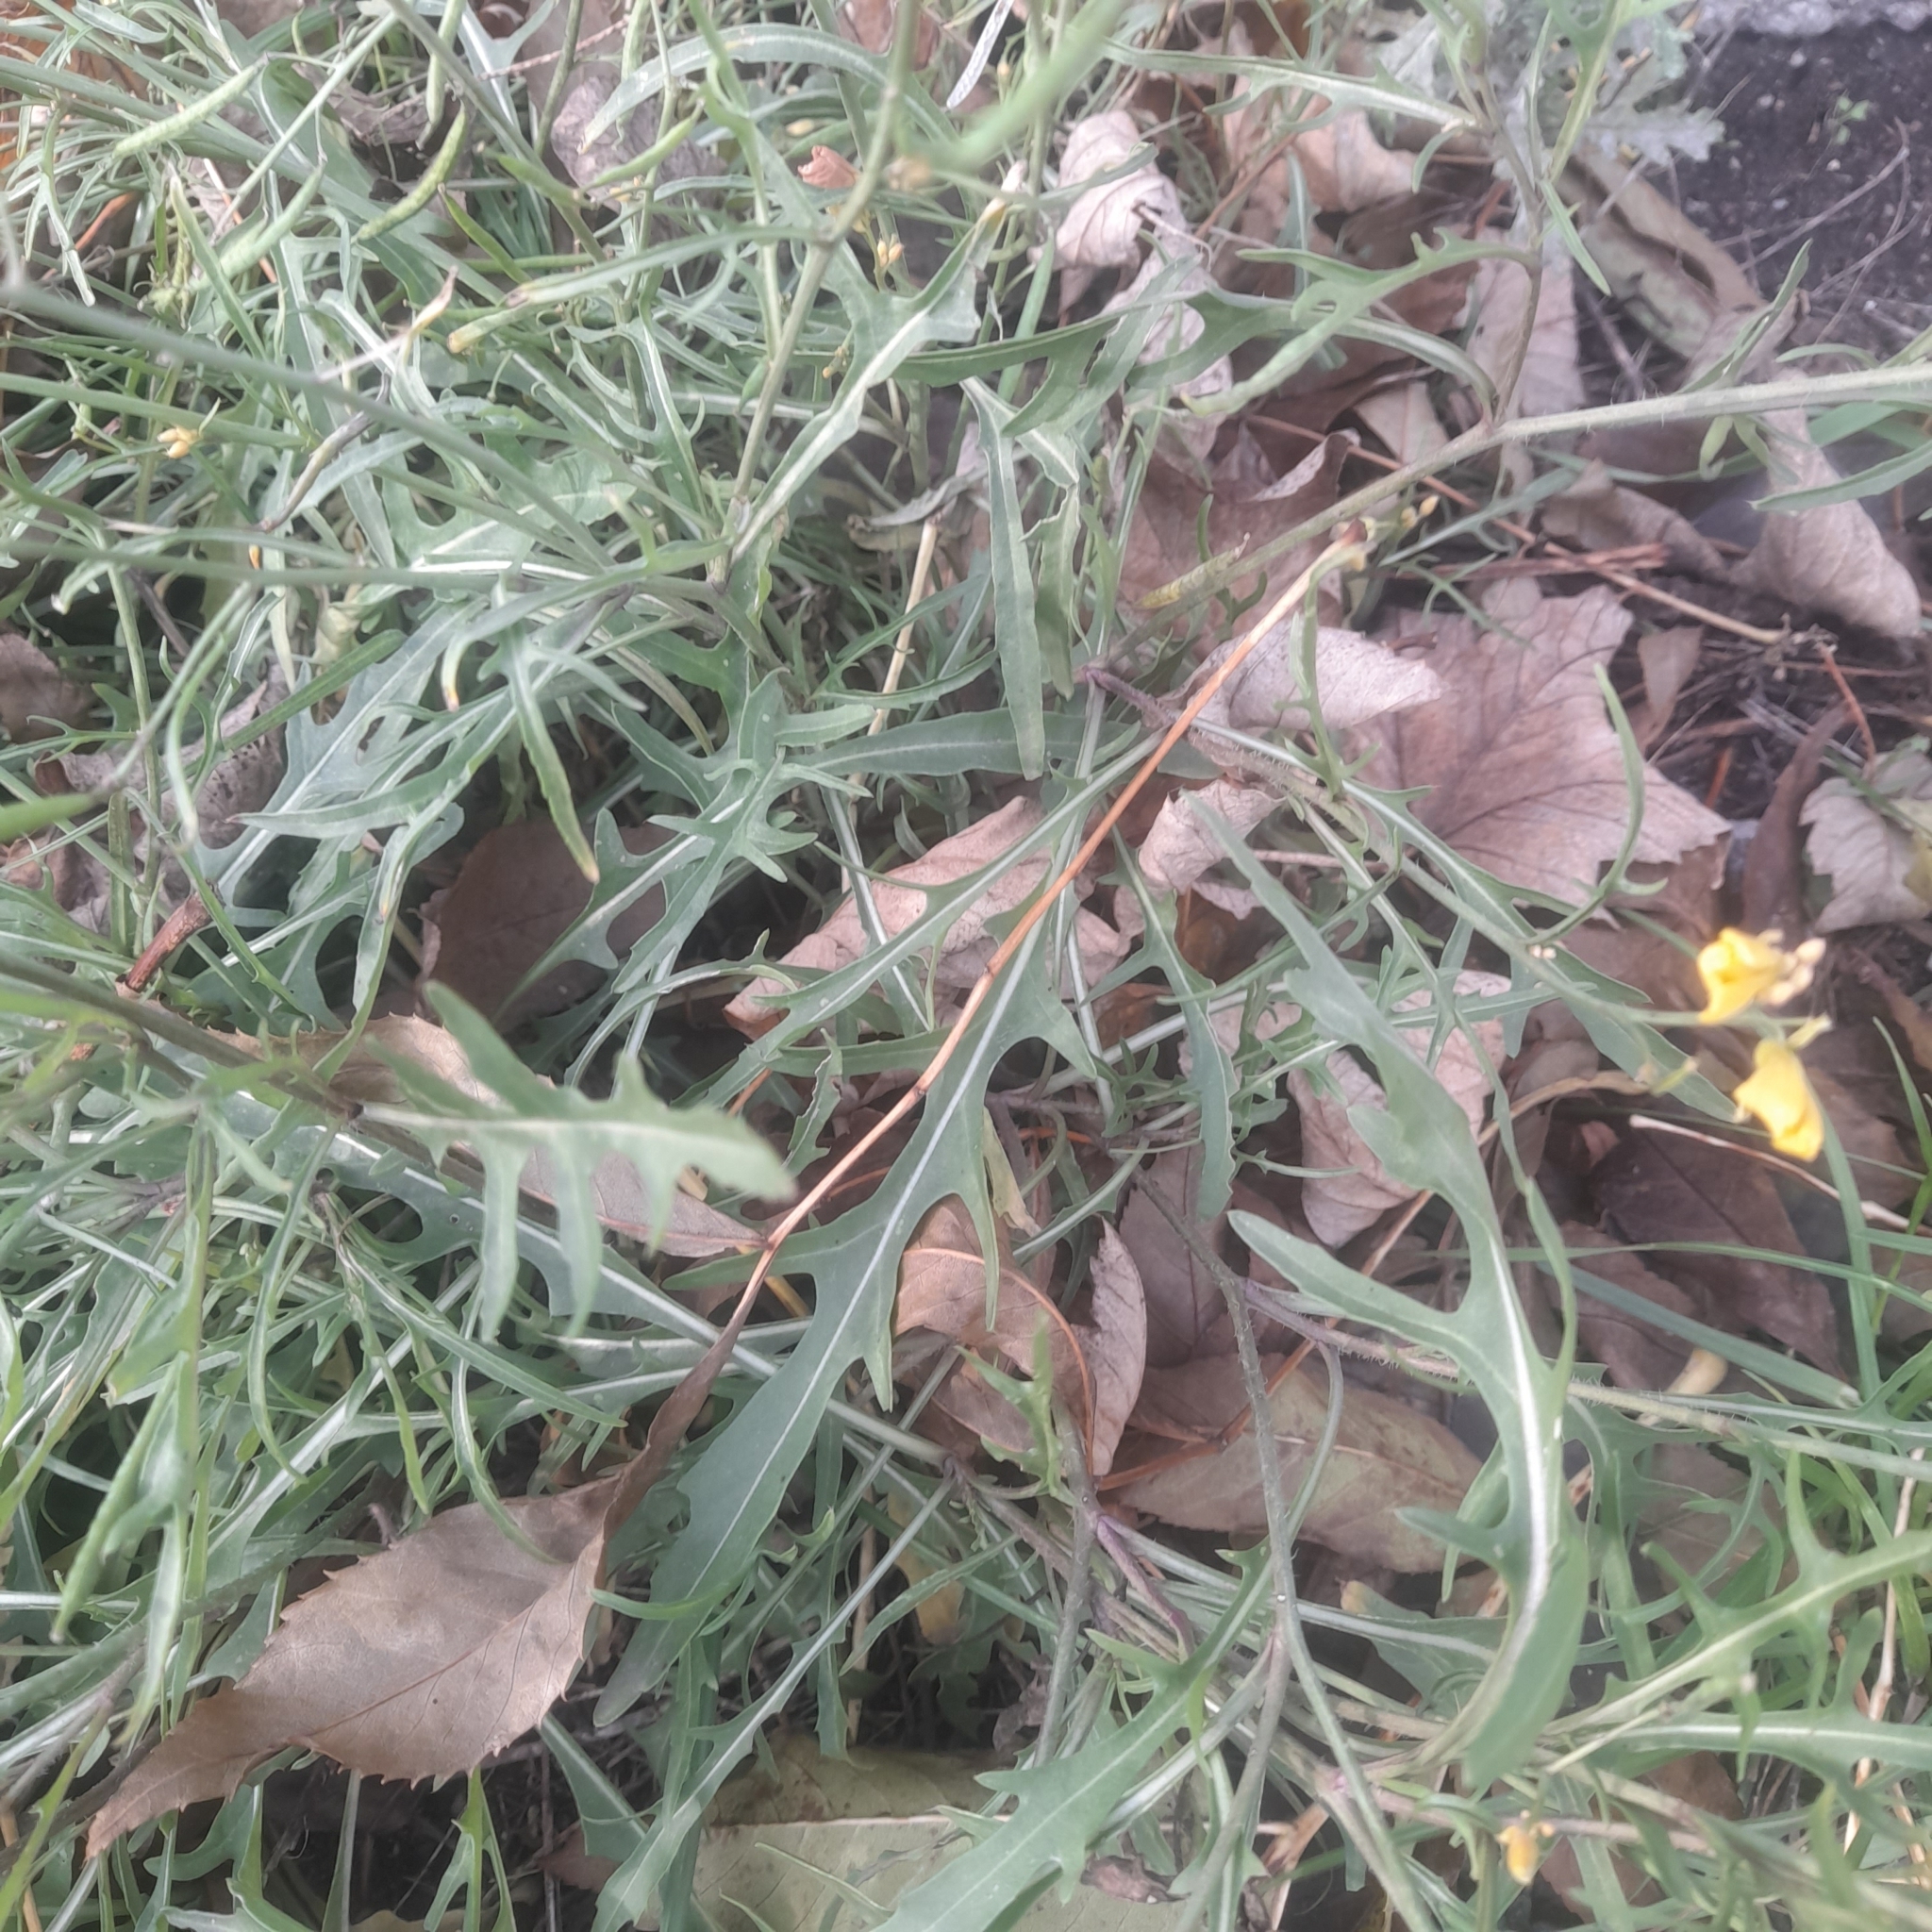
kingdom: Plantae
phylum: Tracheophyta
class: Magnoliopsida
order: Brassicales
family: Brassicaceae
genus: Diplotaxis
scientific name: Diplotaxis tenuifolia
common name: Perennial wall-rocket
